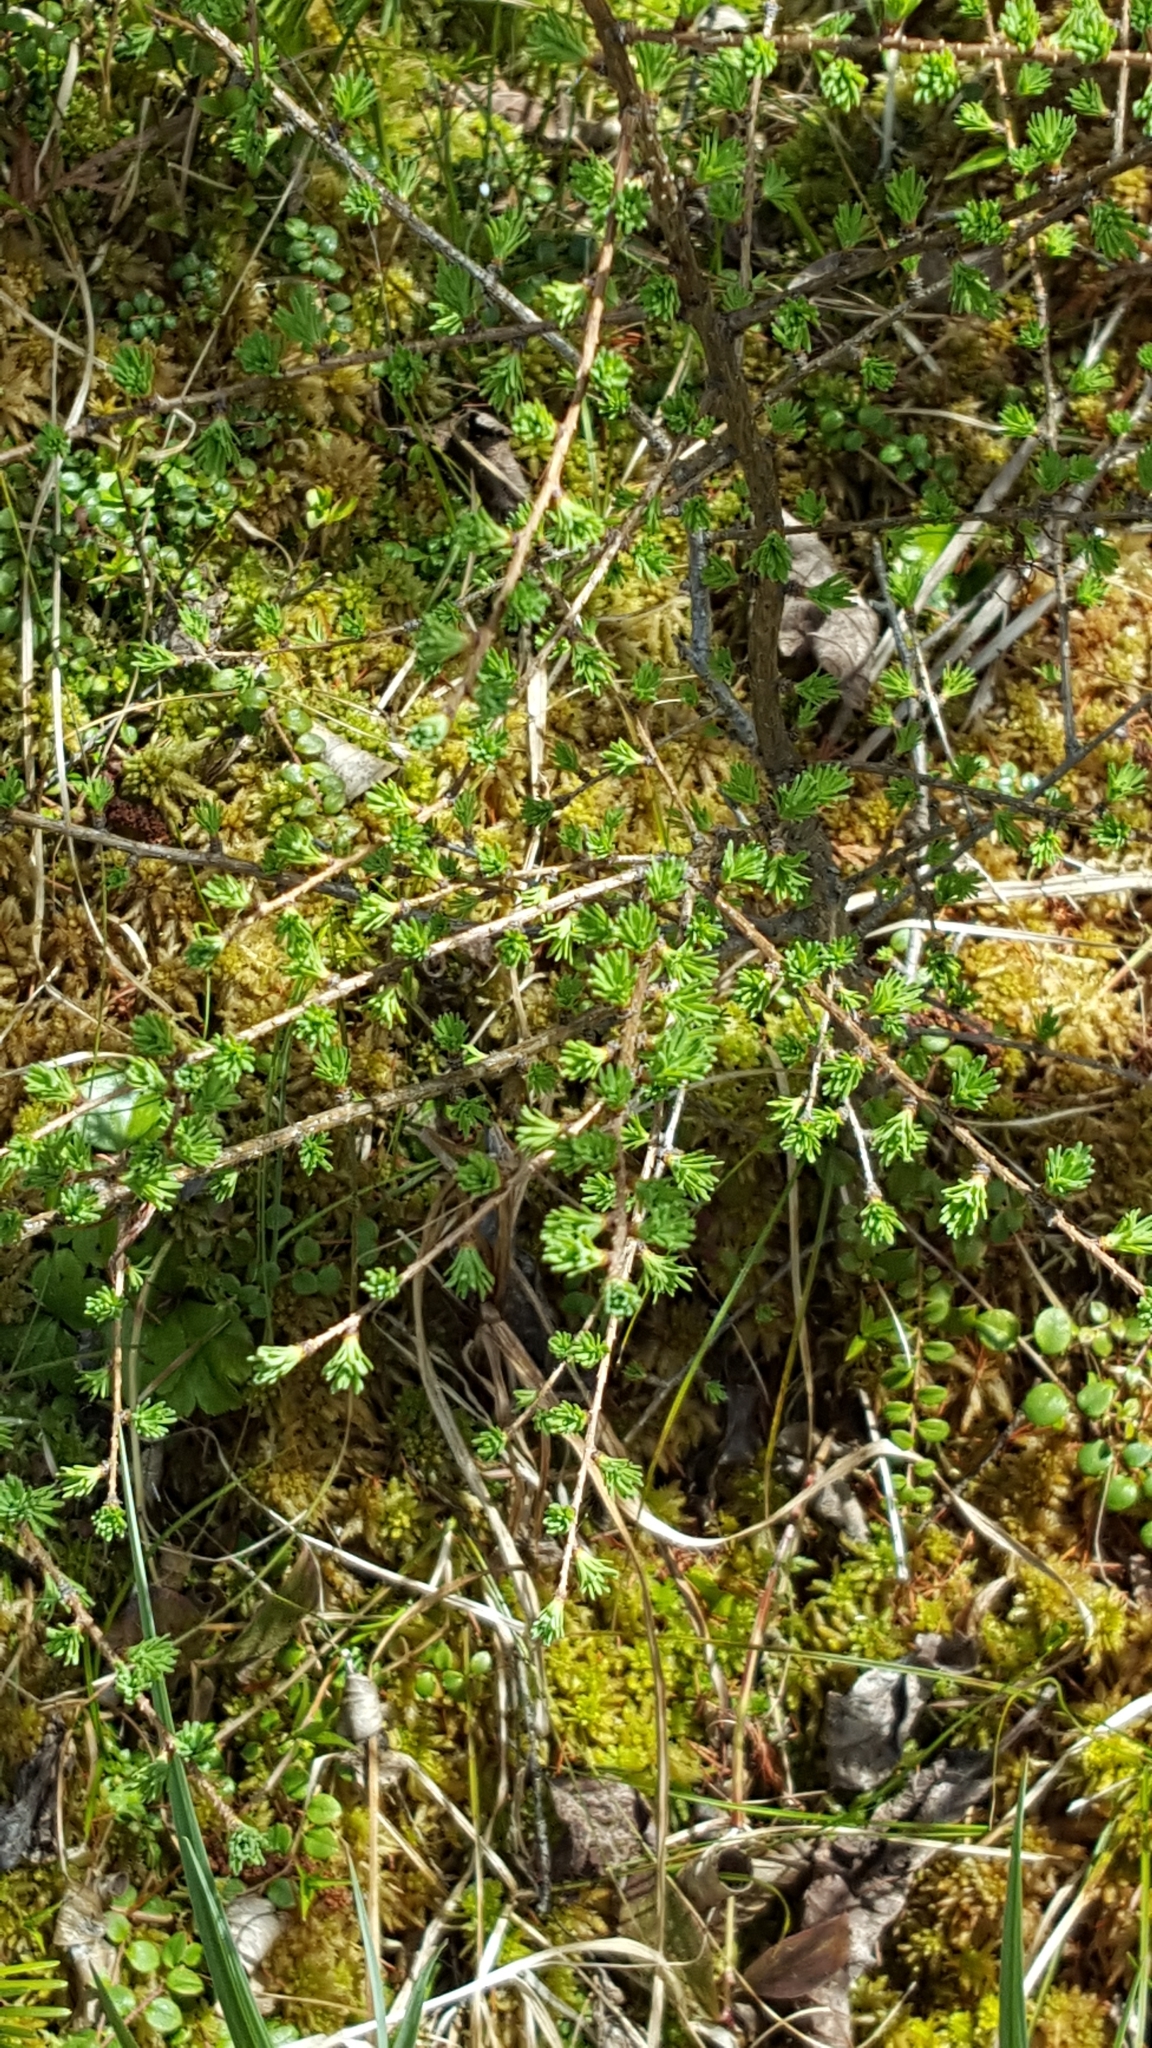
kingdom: Plantae
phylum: Tracheophyta
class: Pinopsida
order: Pinales
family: Pinaceae
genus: Larix
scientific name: Larix laricina
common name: American larch
